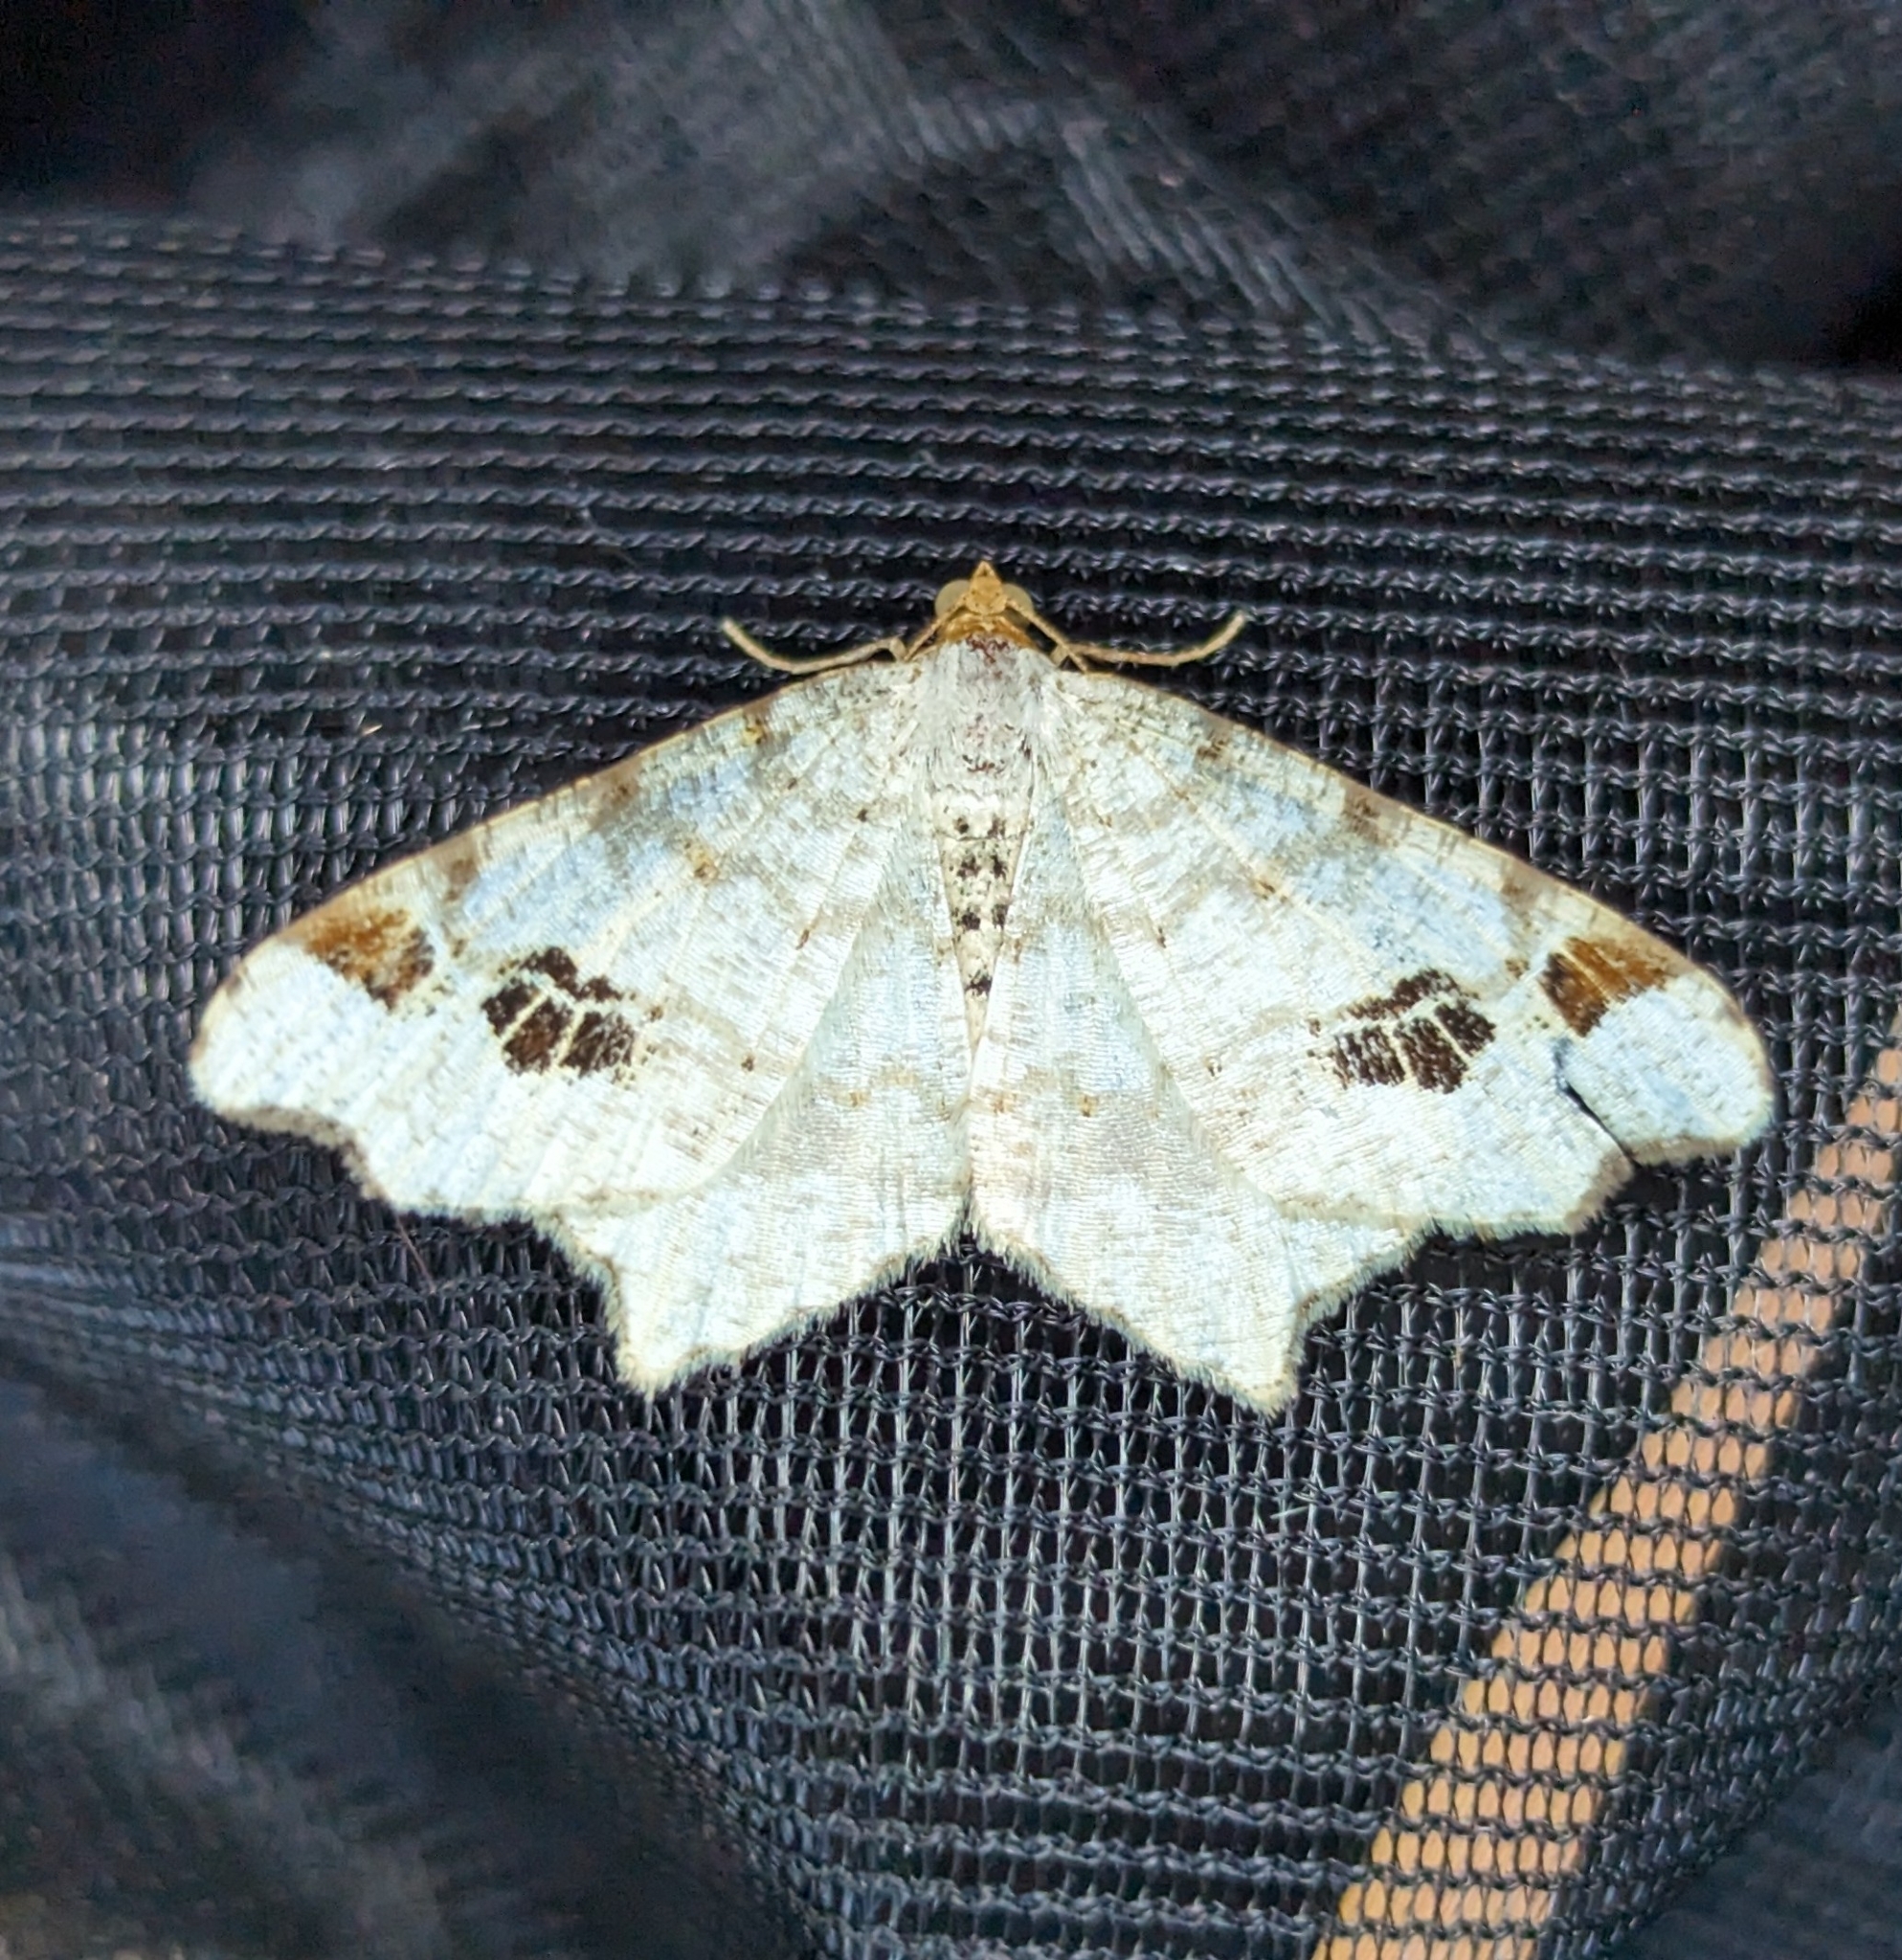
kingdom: Animalia
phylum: Arthropoda
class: Insecta
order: Lepidoptera
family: Geometridae
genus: Macaria
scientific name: Macaria ulsterata
